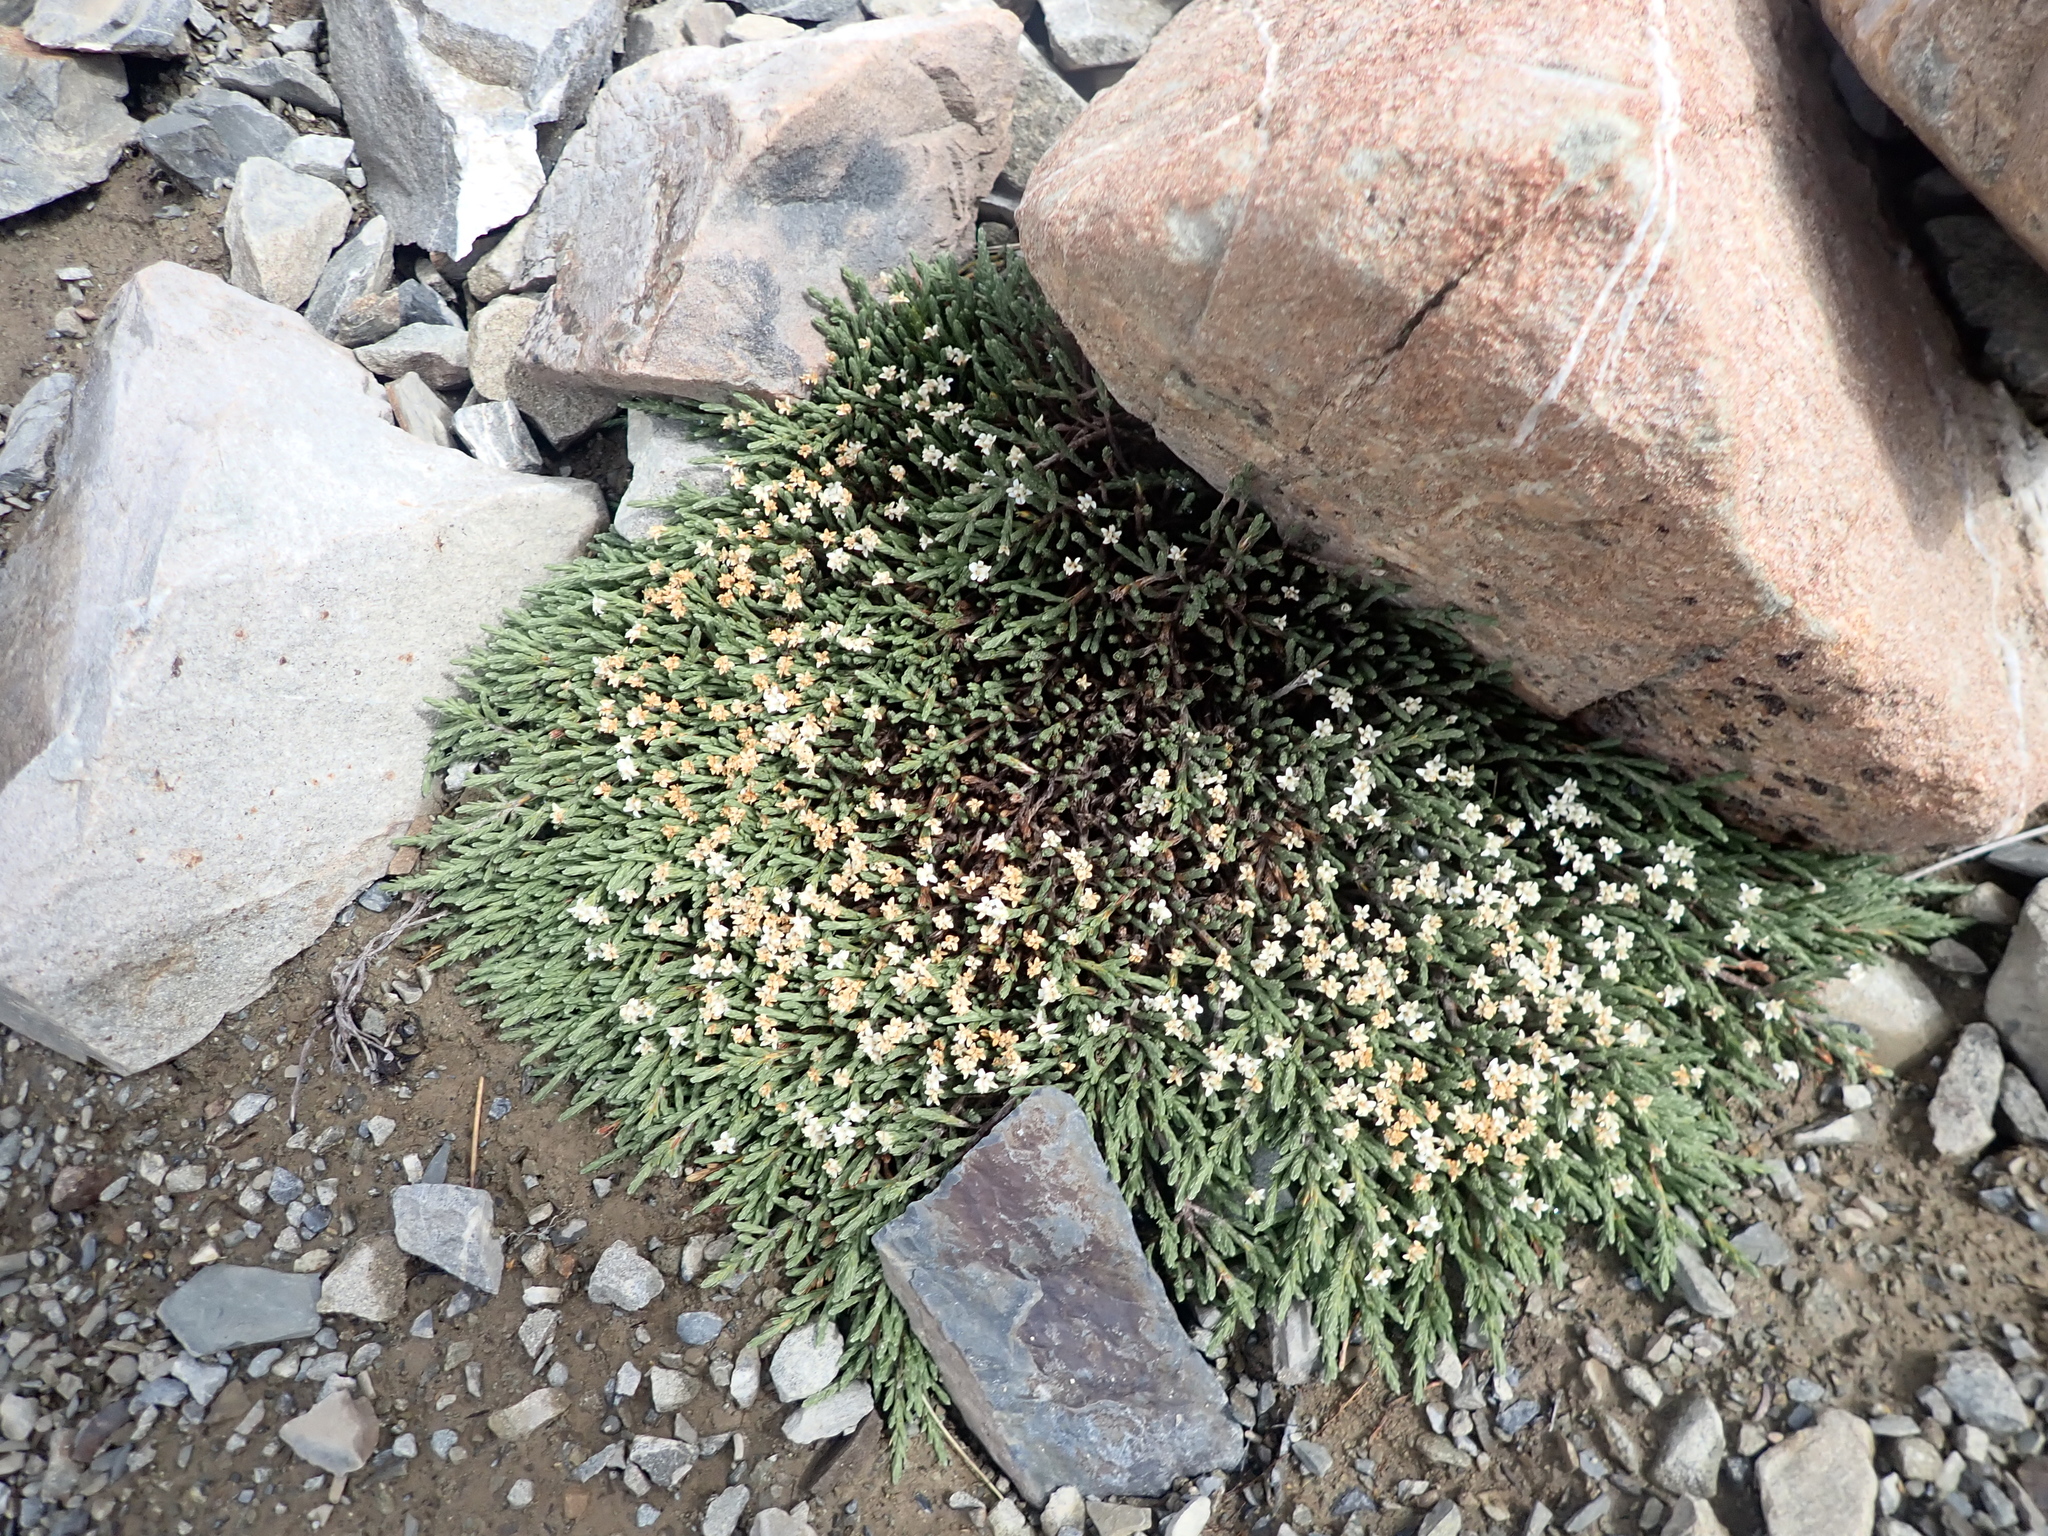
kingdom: Plantae
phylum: Tracheophyta
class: Magnoliopsida
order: Malvales
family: Thymelaeaceae
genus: Kelleria
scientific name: Kelleria villosa
